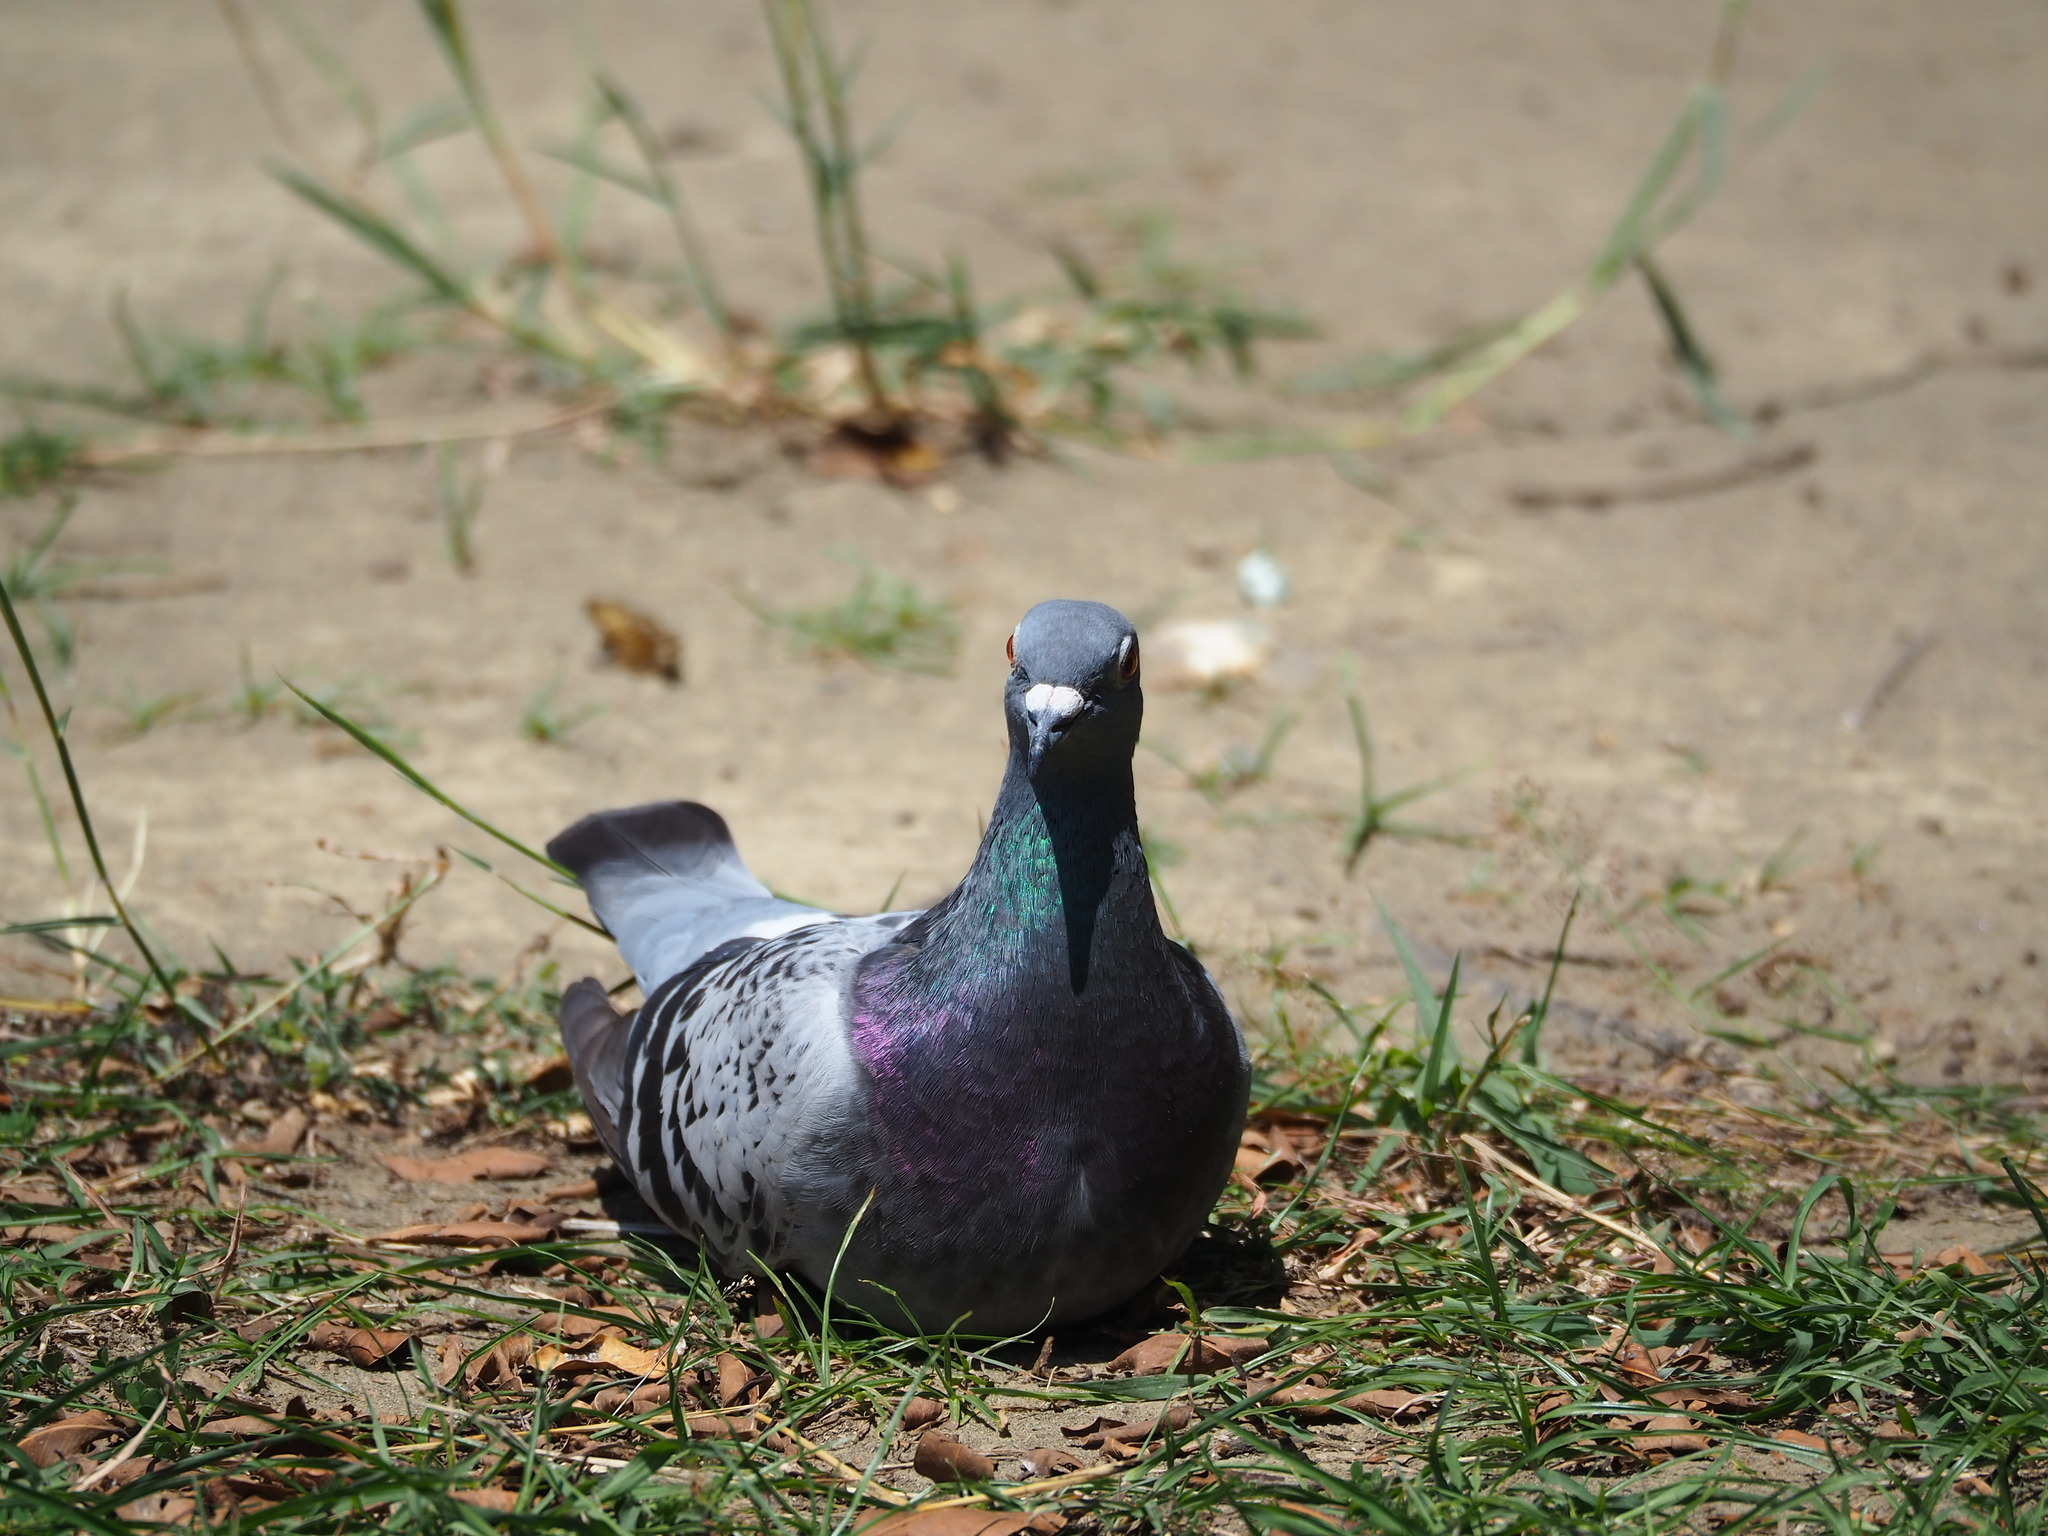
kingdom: Animalia
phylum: Chordata
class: Aves
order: Columbiformes
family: Columbidae
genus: Columba
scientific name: Columba livia
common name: Rock pigeon
